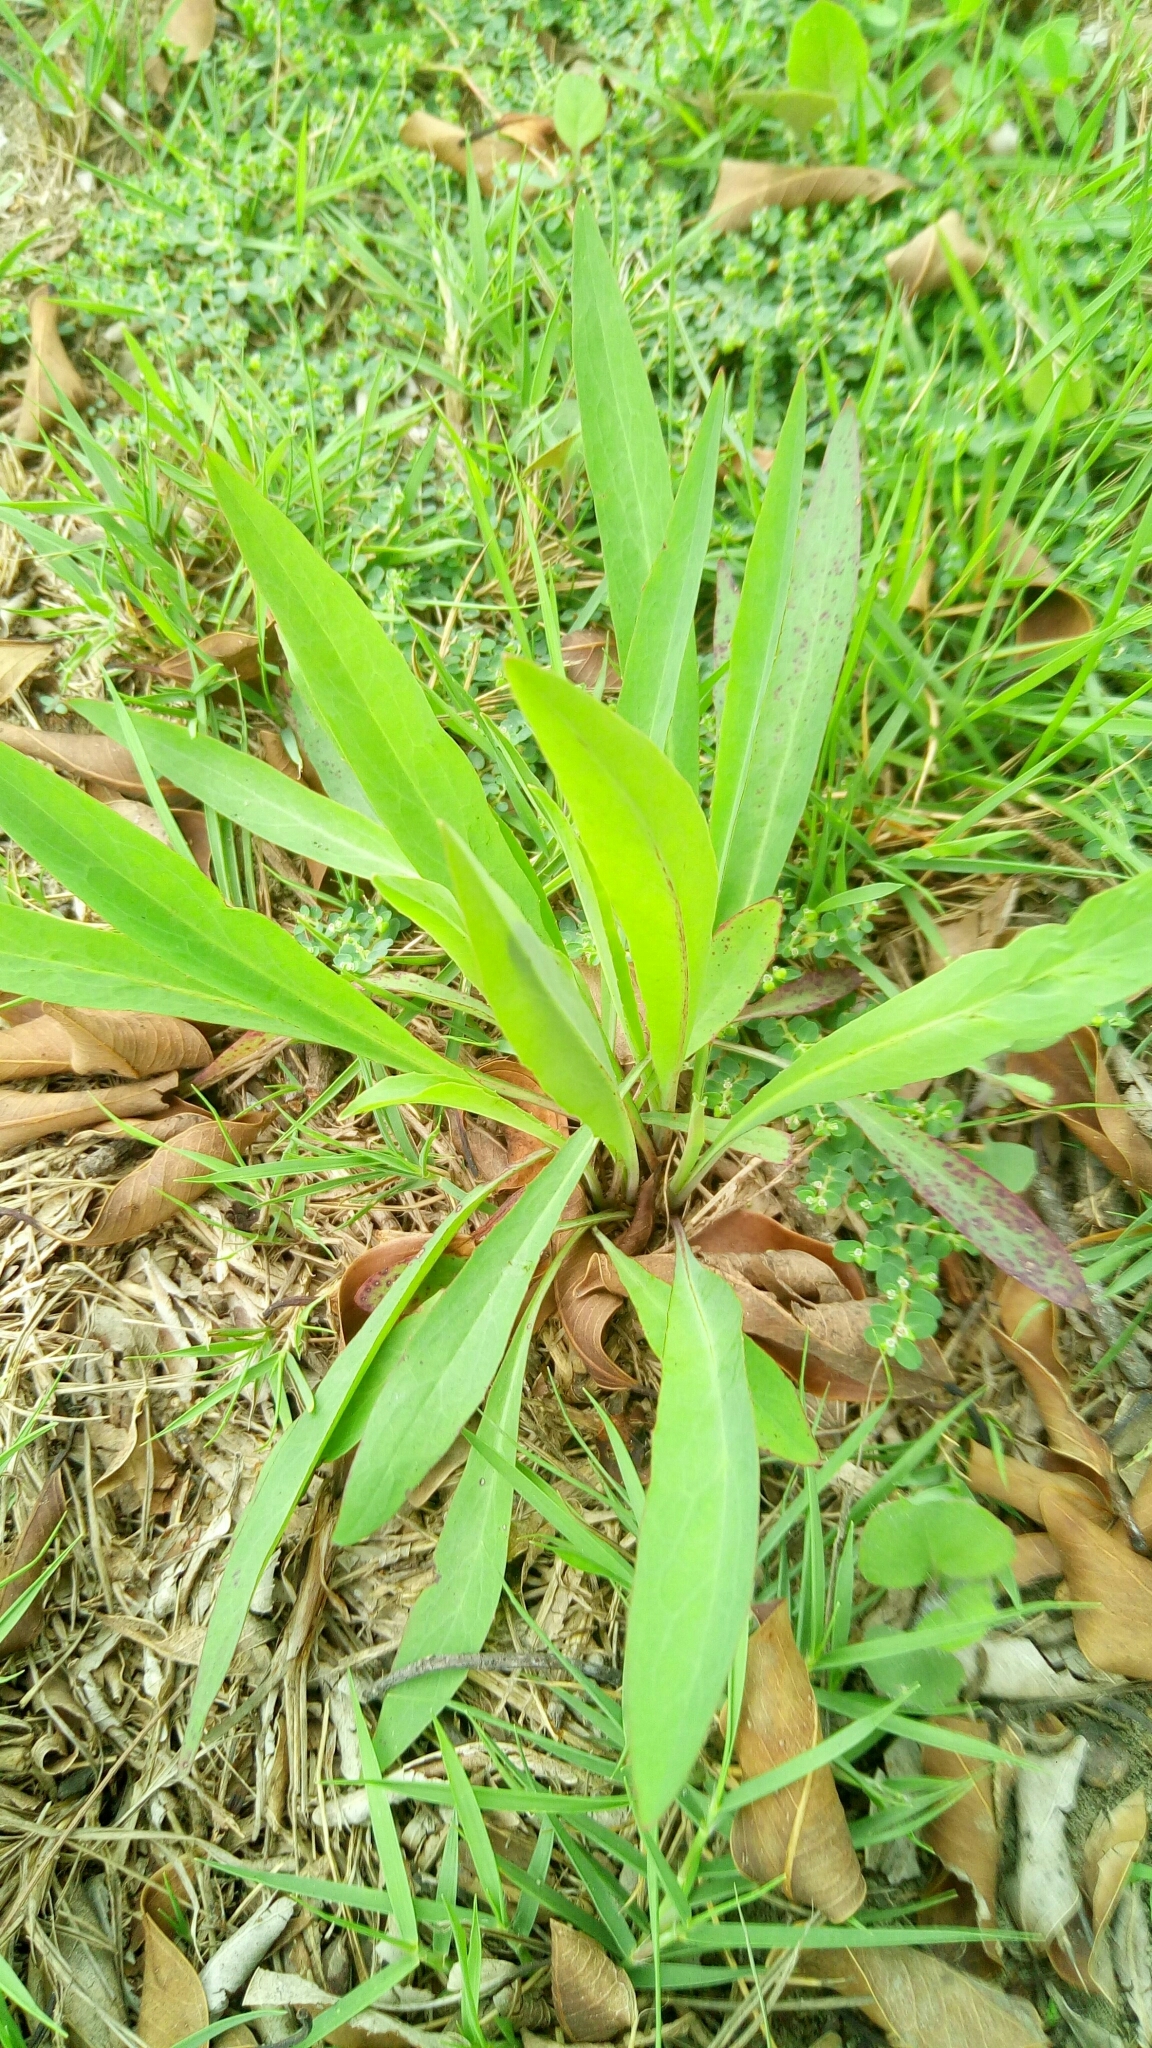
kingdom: Plantae
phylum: Tracheophyta
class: Magnoliopsida
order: Asterales
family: Asteraceae
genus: Ixeris
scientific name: Ixeris chinensis
